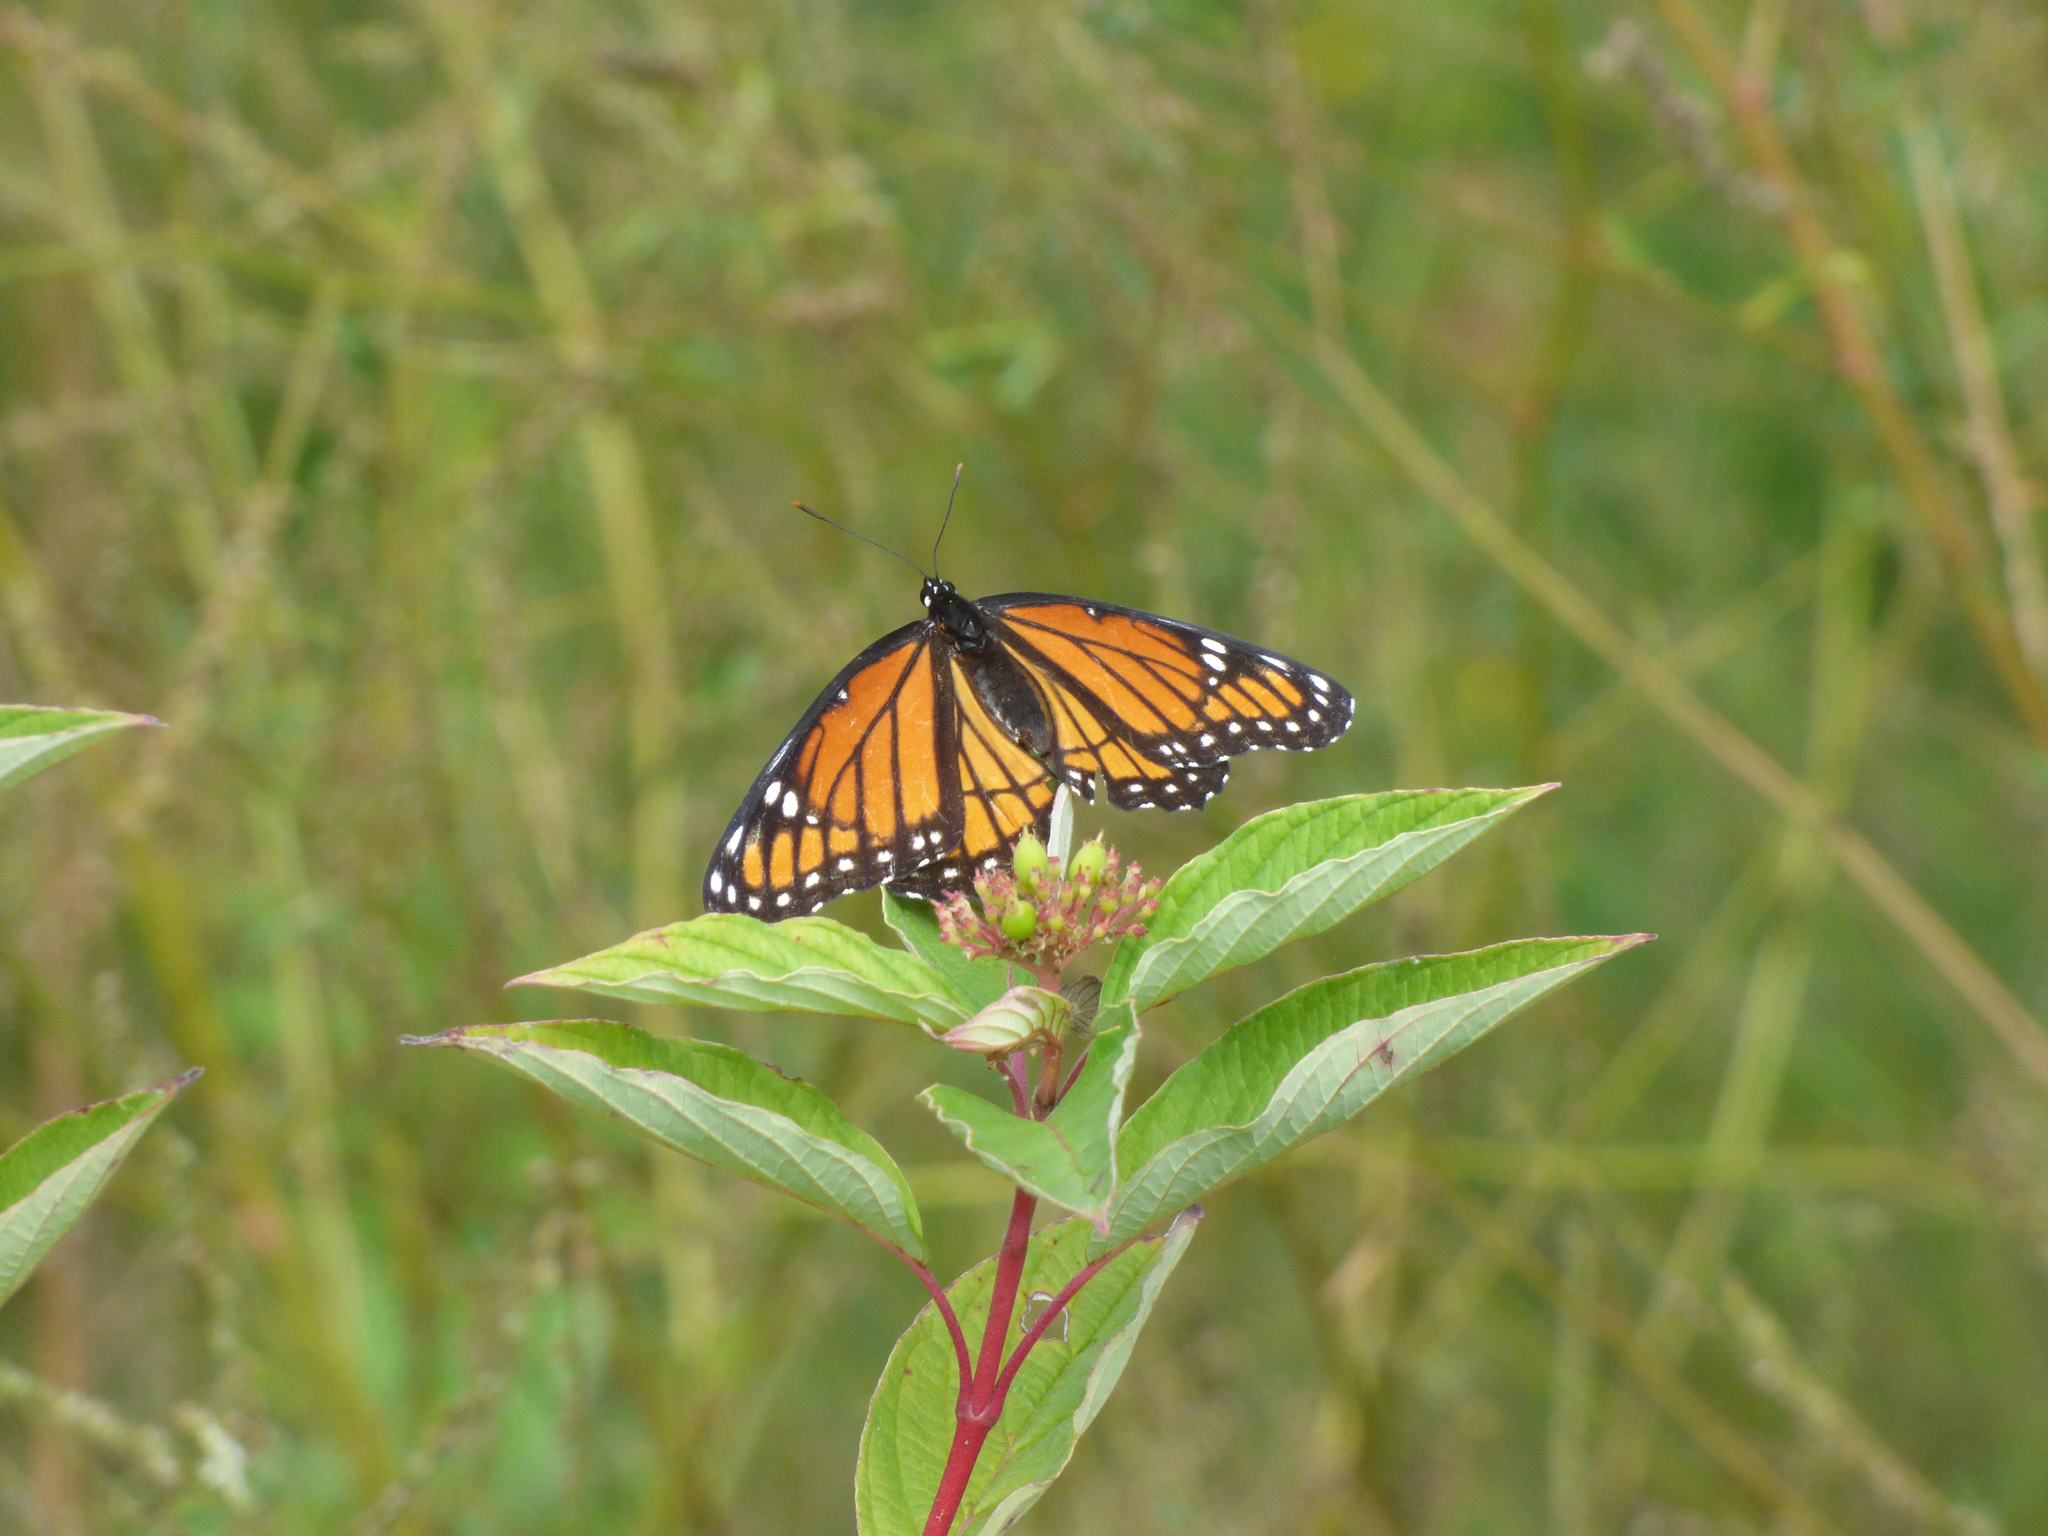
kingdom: Animalia
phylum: Arthropoda
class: Insecta
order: Lepidoptera
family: Nymphalidae
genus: Limenitis
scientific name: Limenitis archippus
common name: Viceroy
